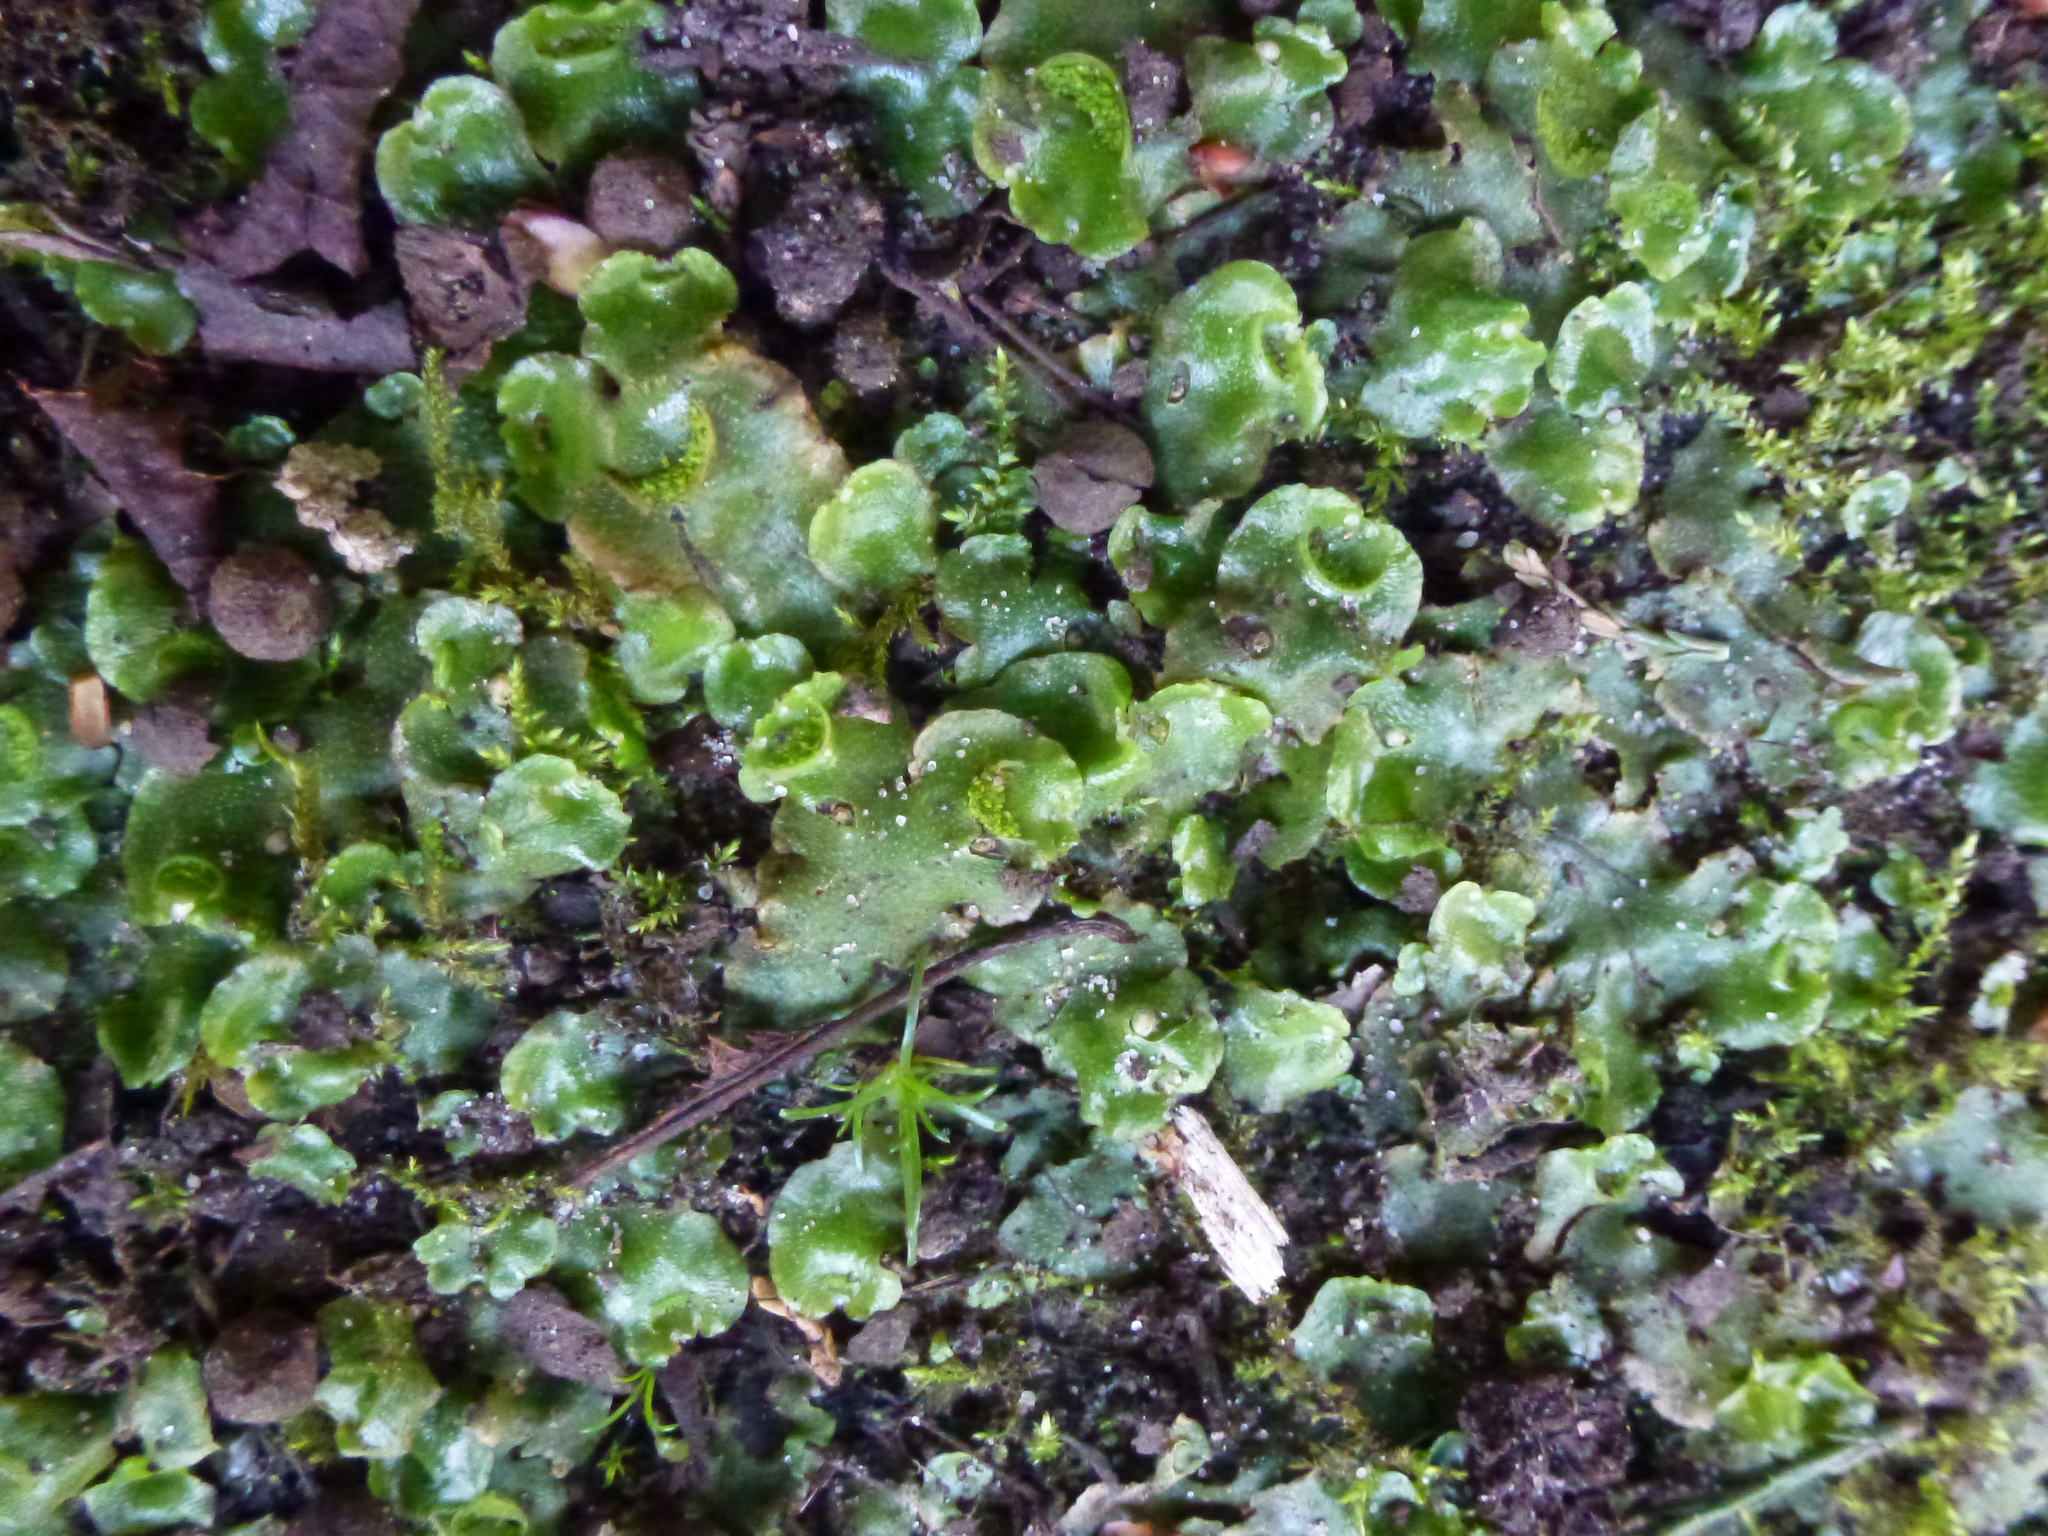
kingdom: Plantae
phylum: Marchantiophyta
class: Marchantiopsida
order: Lunulariales
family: Lunulariaceae
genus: Lunularia
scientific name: Lunularia cruciata
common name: Crescent-cup liverwort
